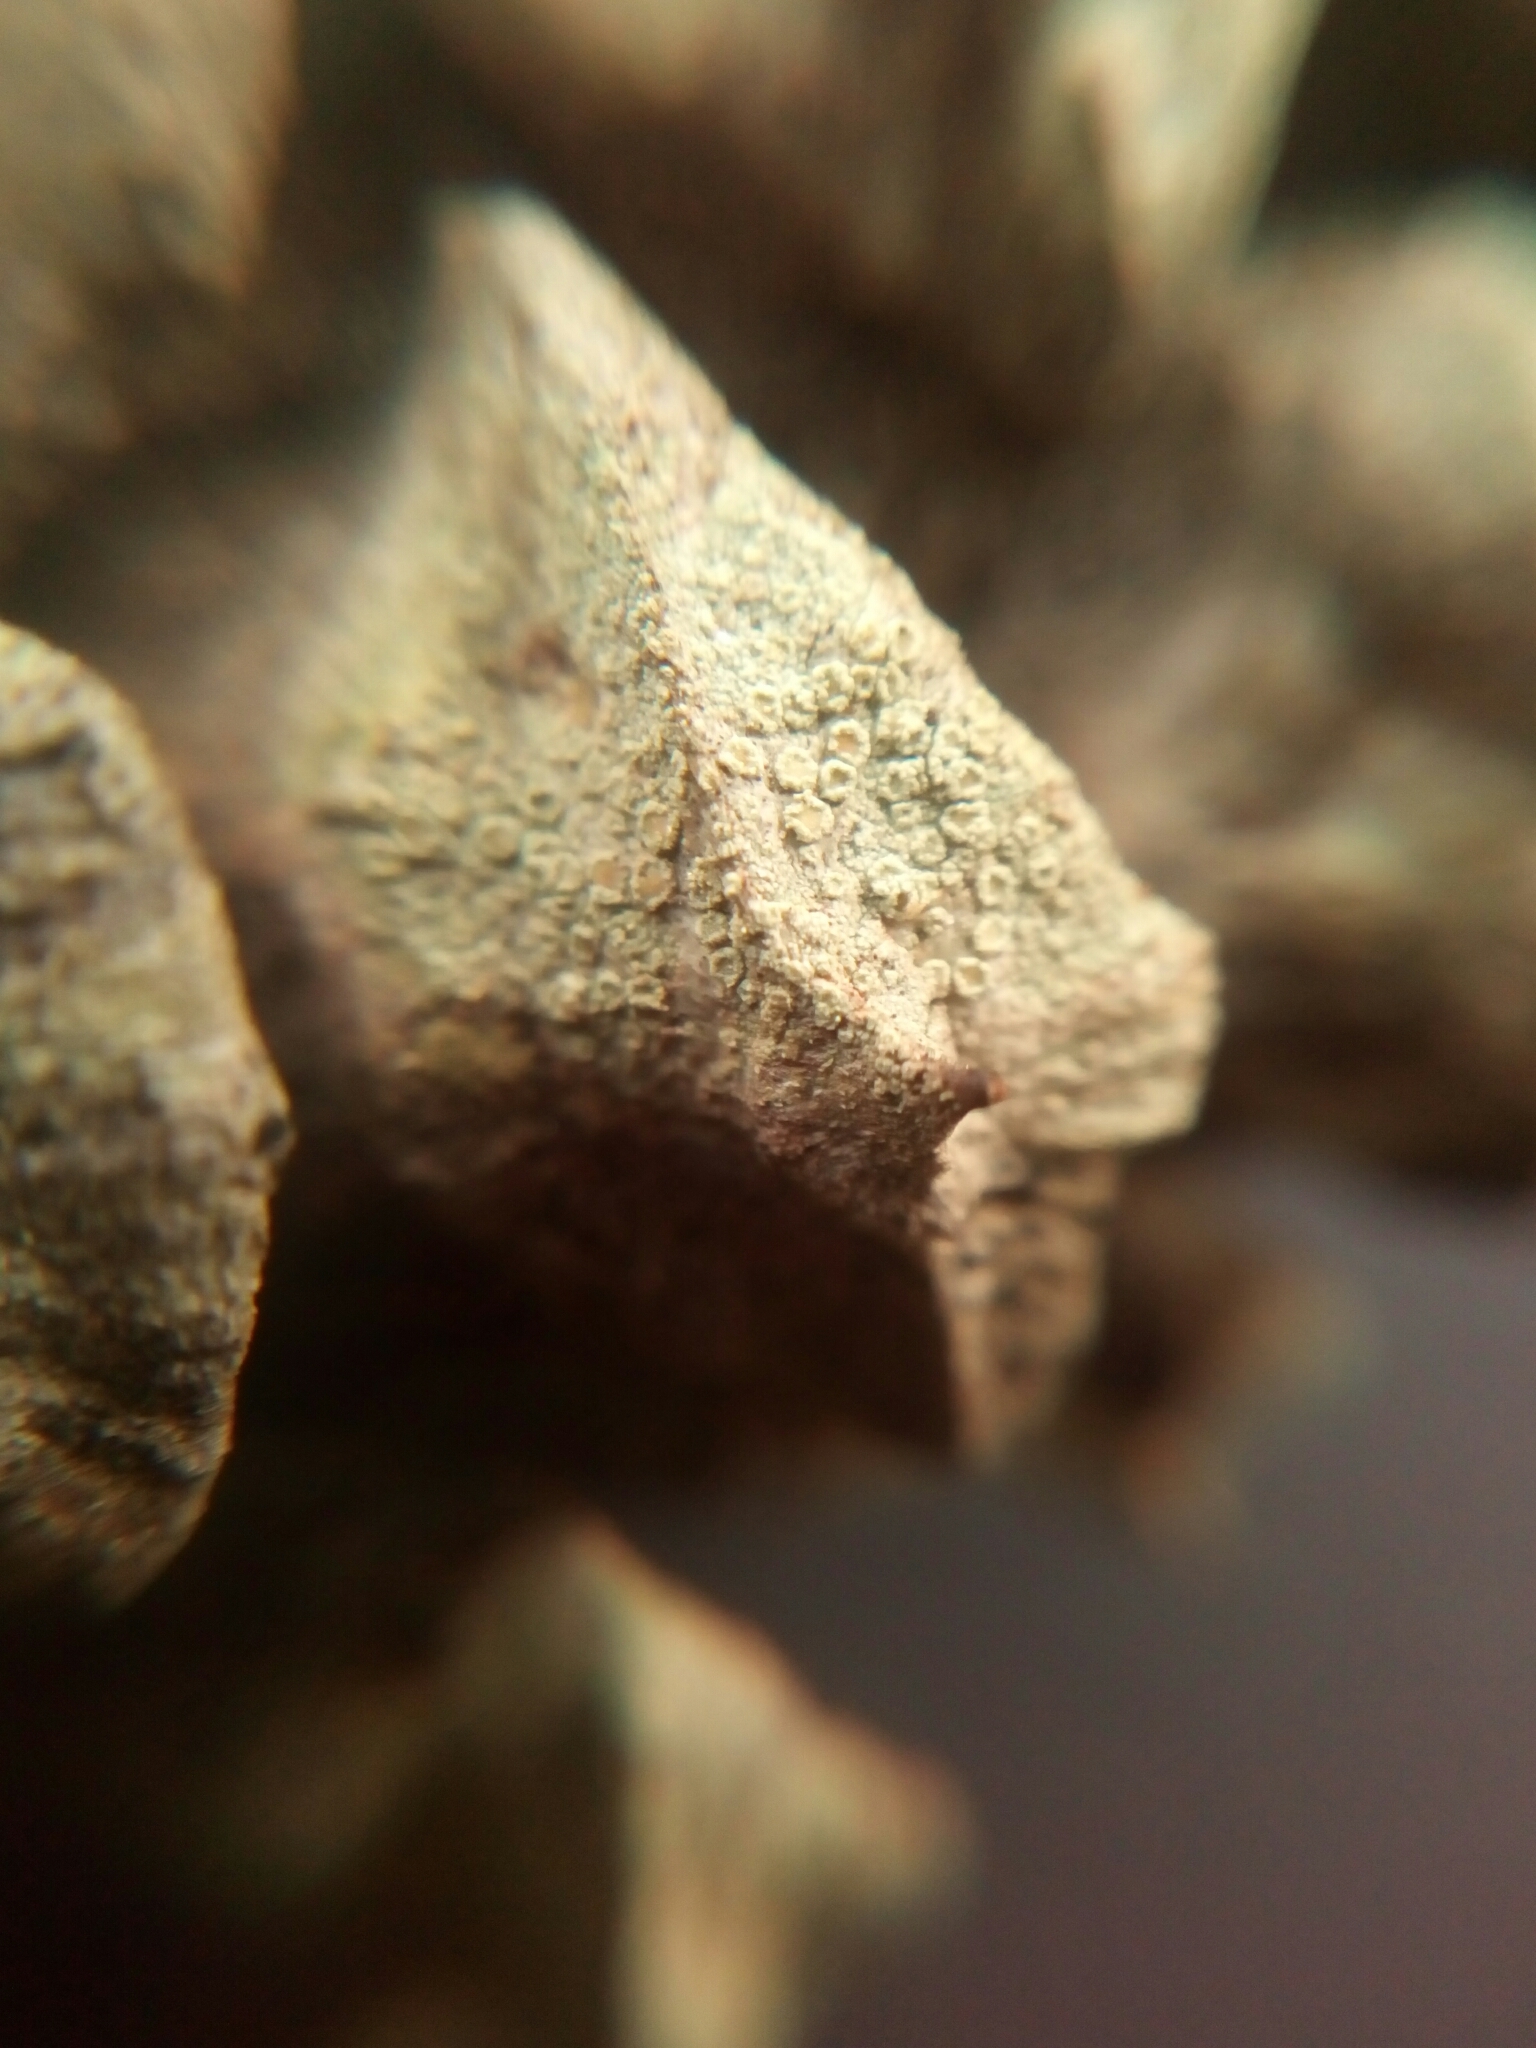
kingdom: Fungi
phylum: Ascomycota
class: Lecanoromycetes
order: Lecanorales
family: Lecanoraceae
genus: Lecanora
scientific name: Lecanora strobilina
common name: Mealy rim-lichen
